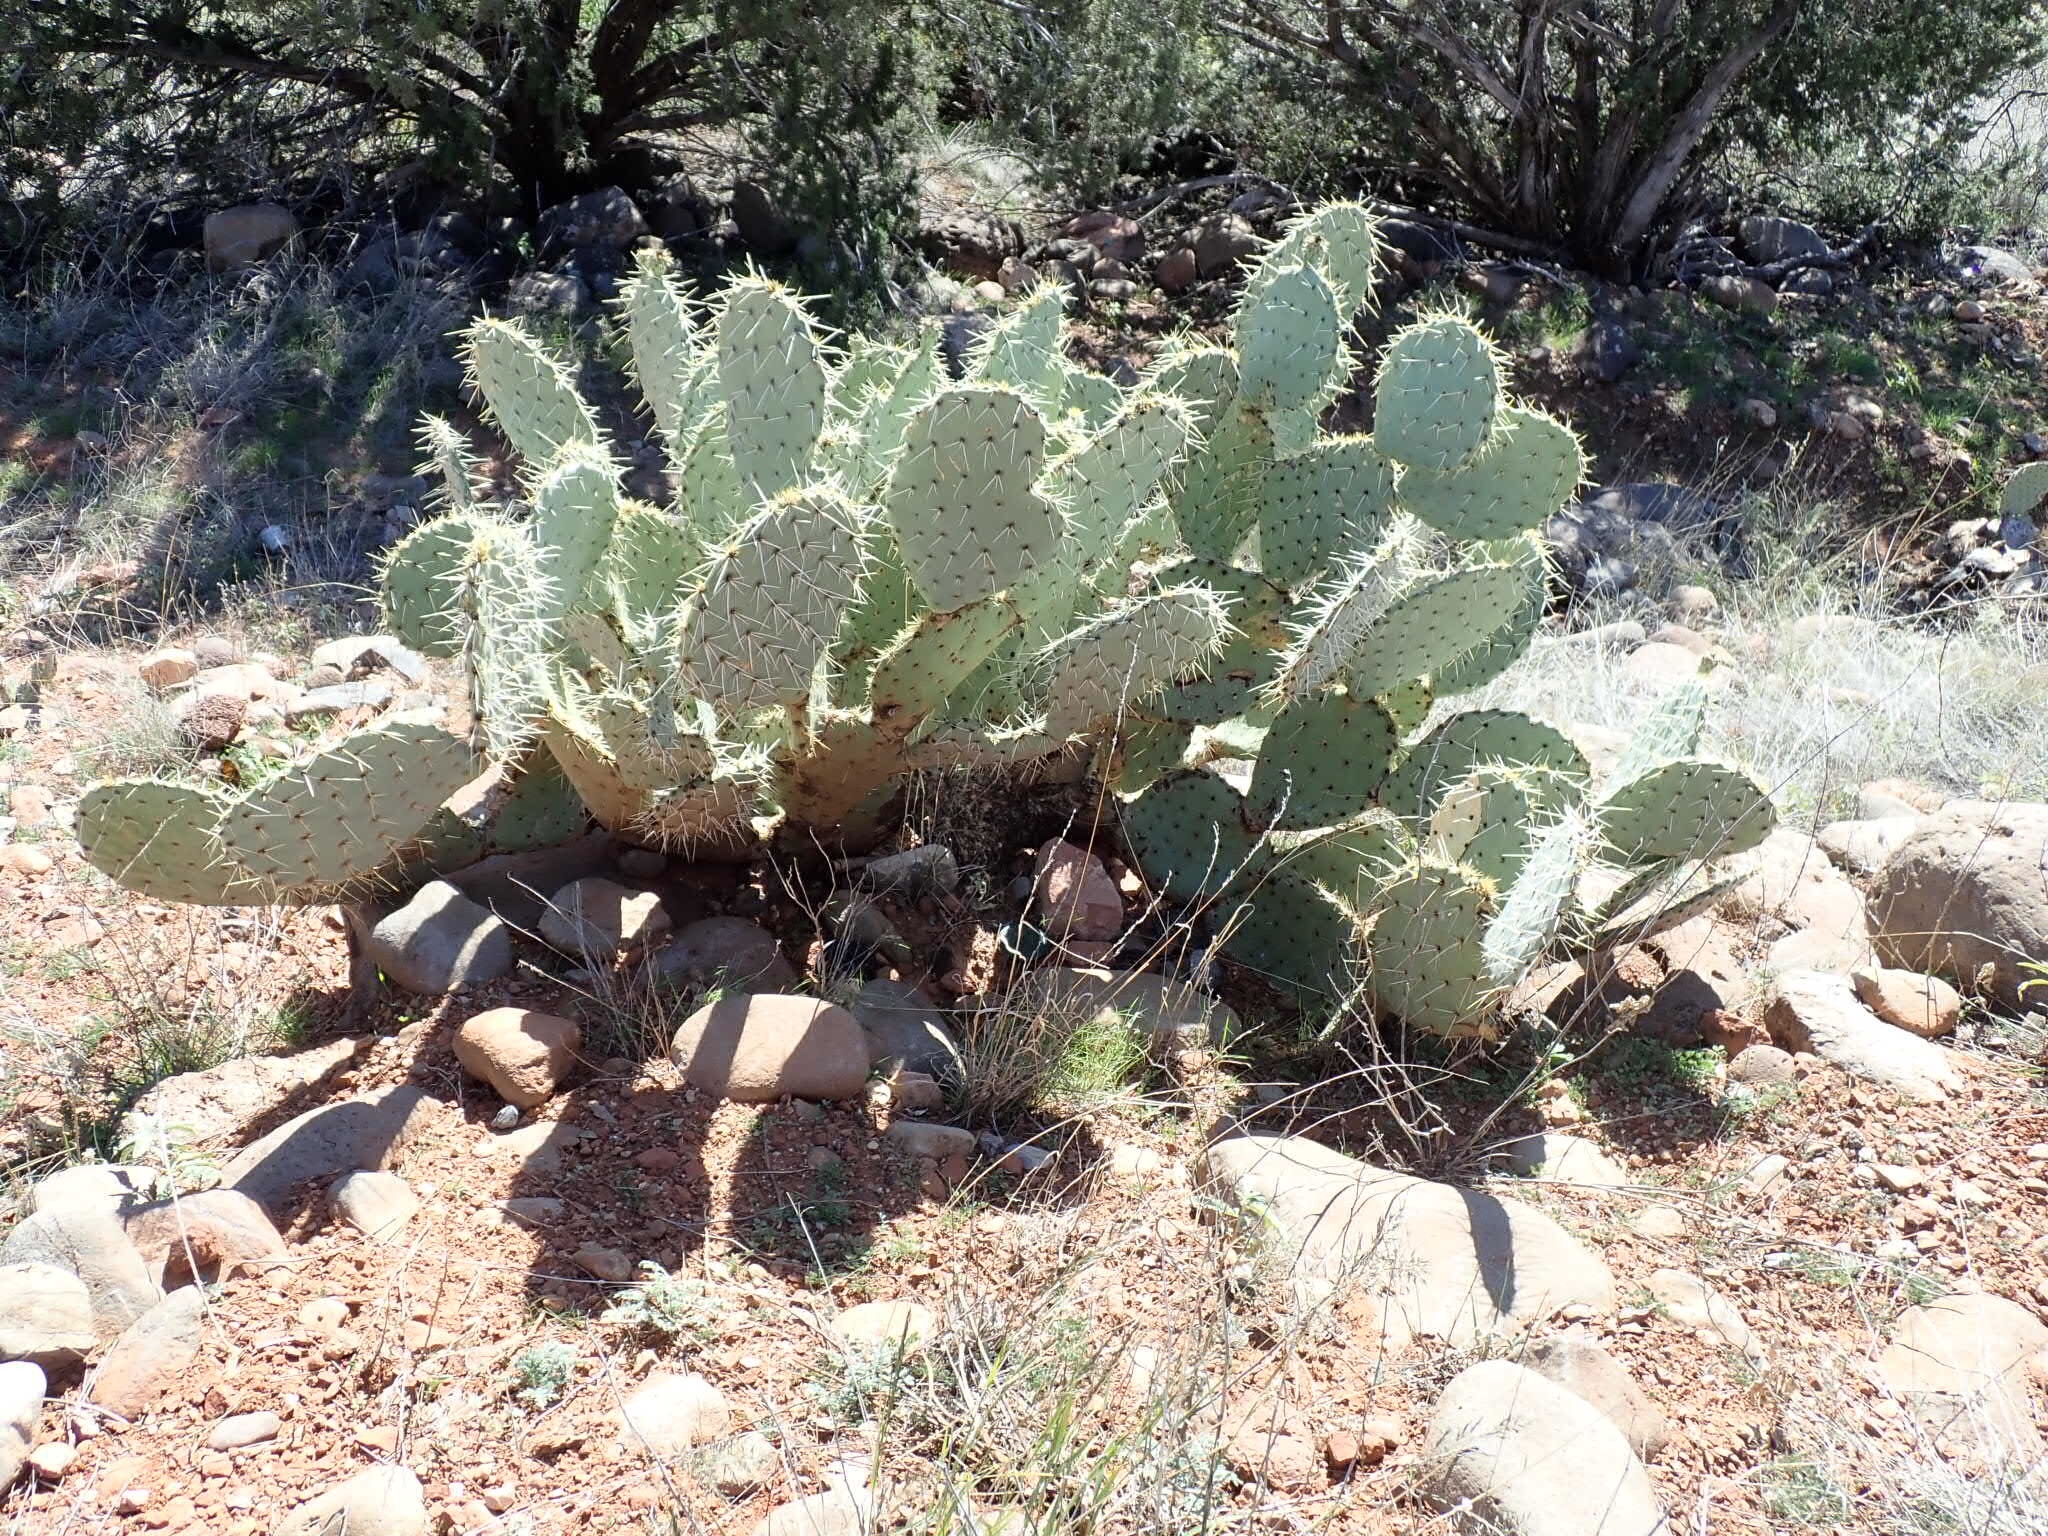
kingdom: Plantae
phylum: Tracheophyta
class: Magnoliopsida
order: Caryophyllales
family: Cactaceae
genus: Opuntia
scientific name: Opuntia engelmannii
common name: Cactus-apple
